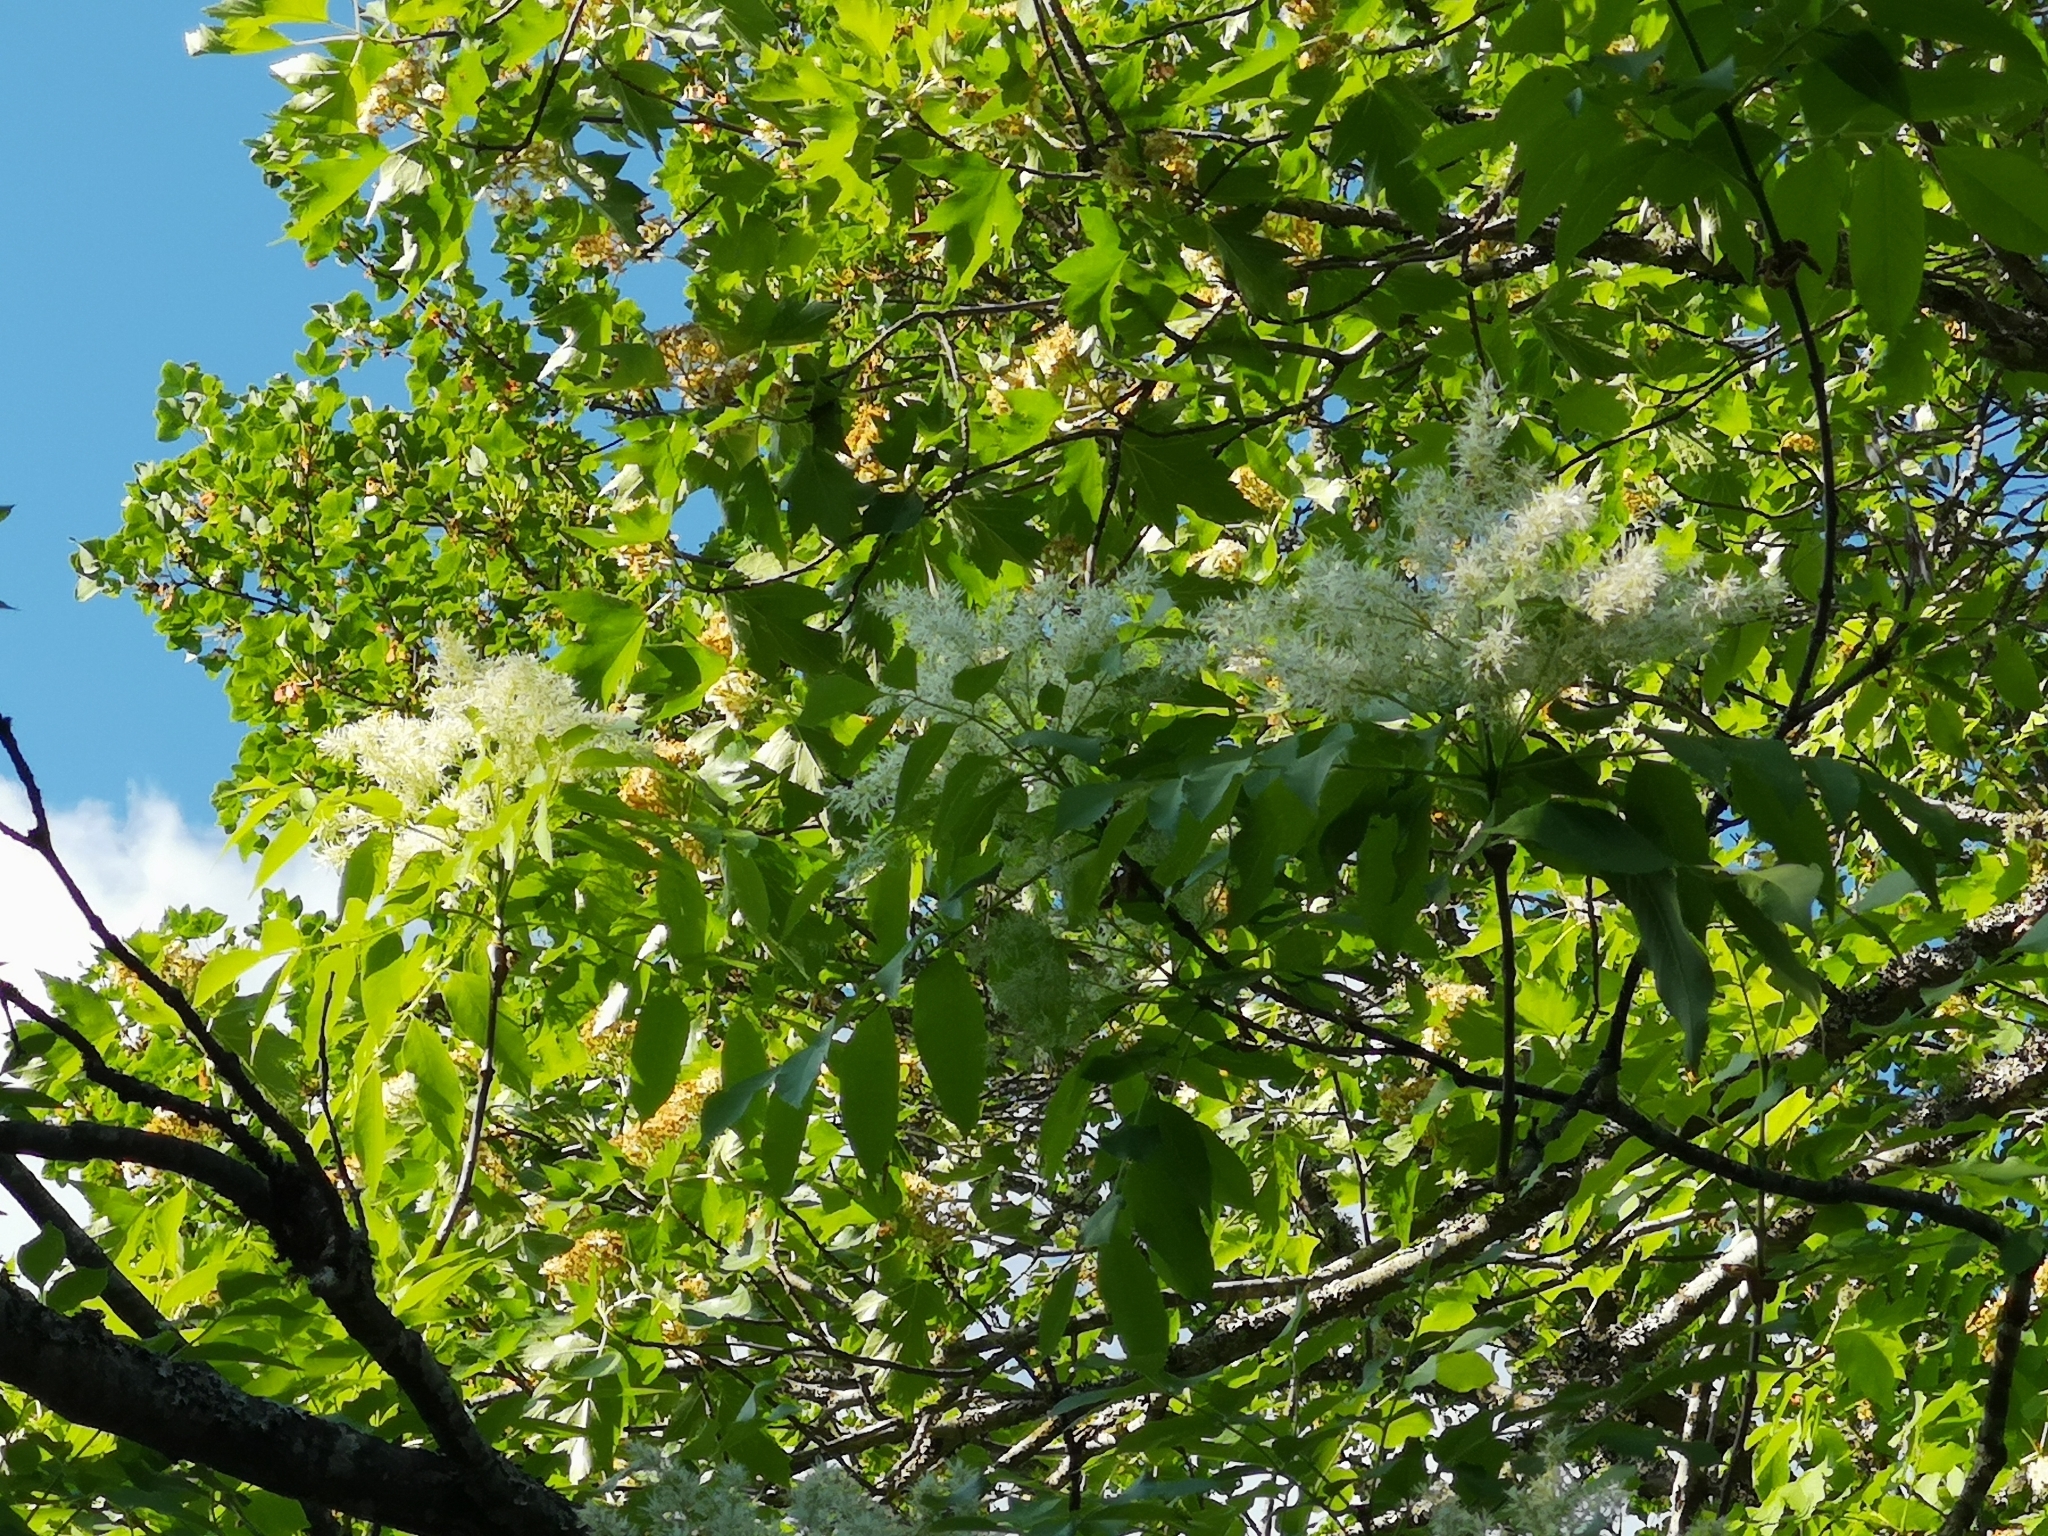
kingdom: Plantae
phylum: Tracheophyta
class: Magnoliopsida
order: Lamiales
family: Oleaceae
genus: Fraxinus
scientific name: Fraxinus ornus
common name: Manna ash
